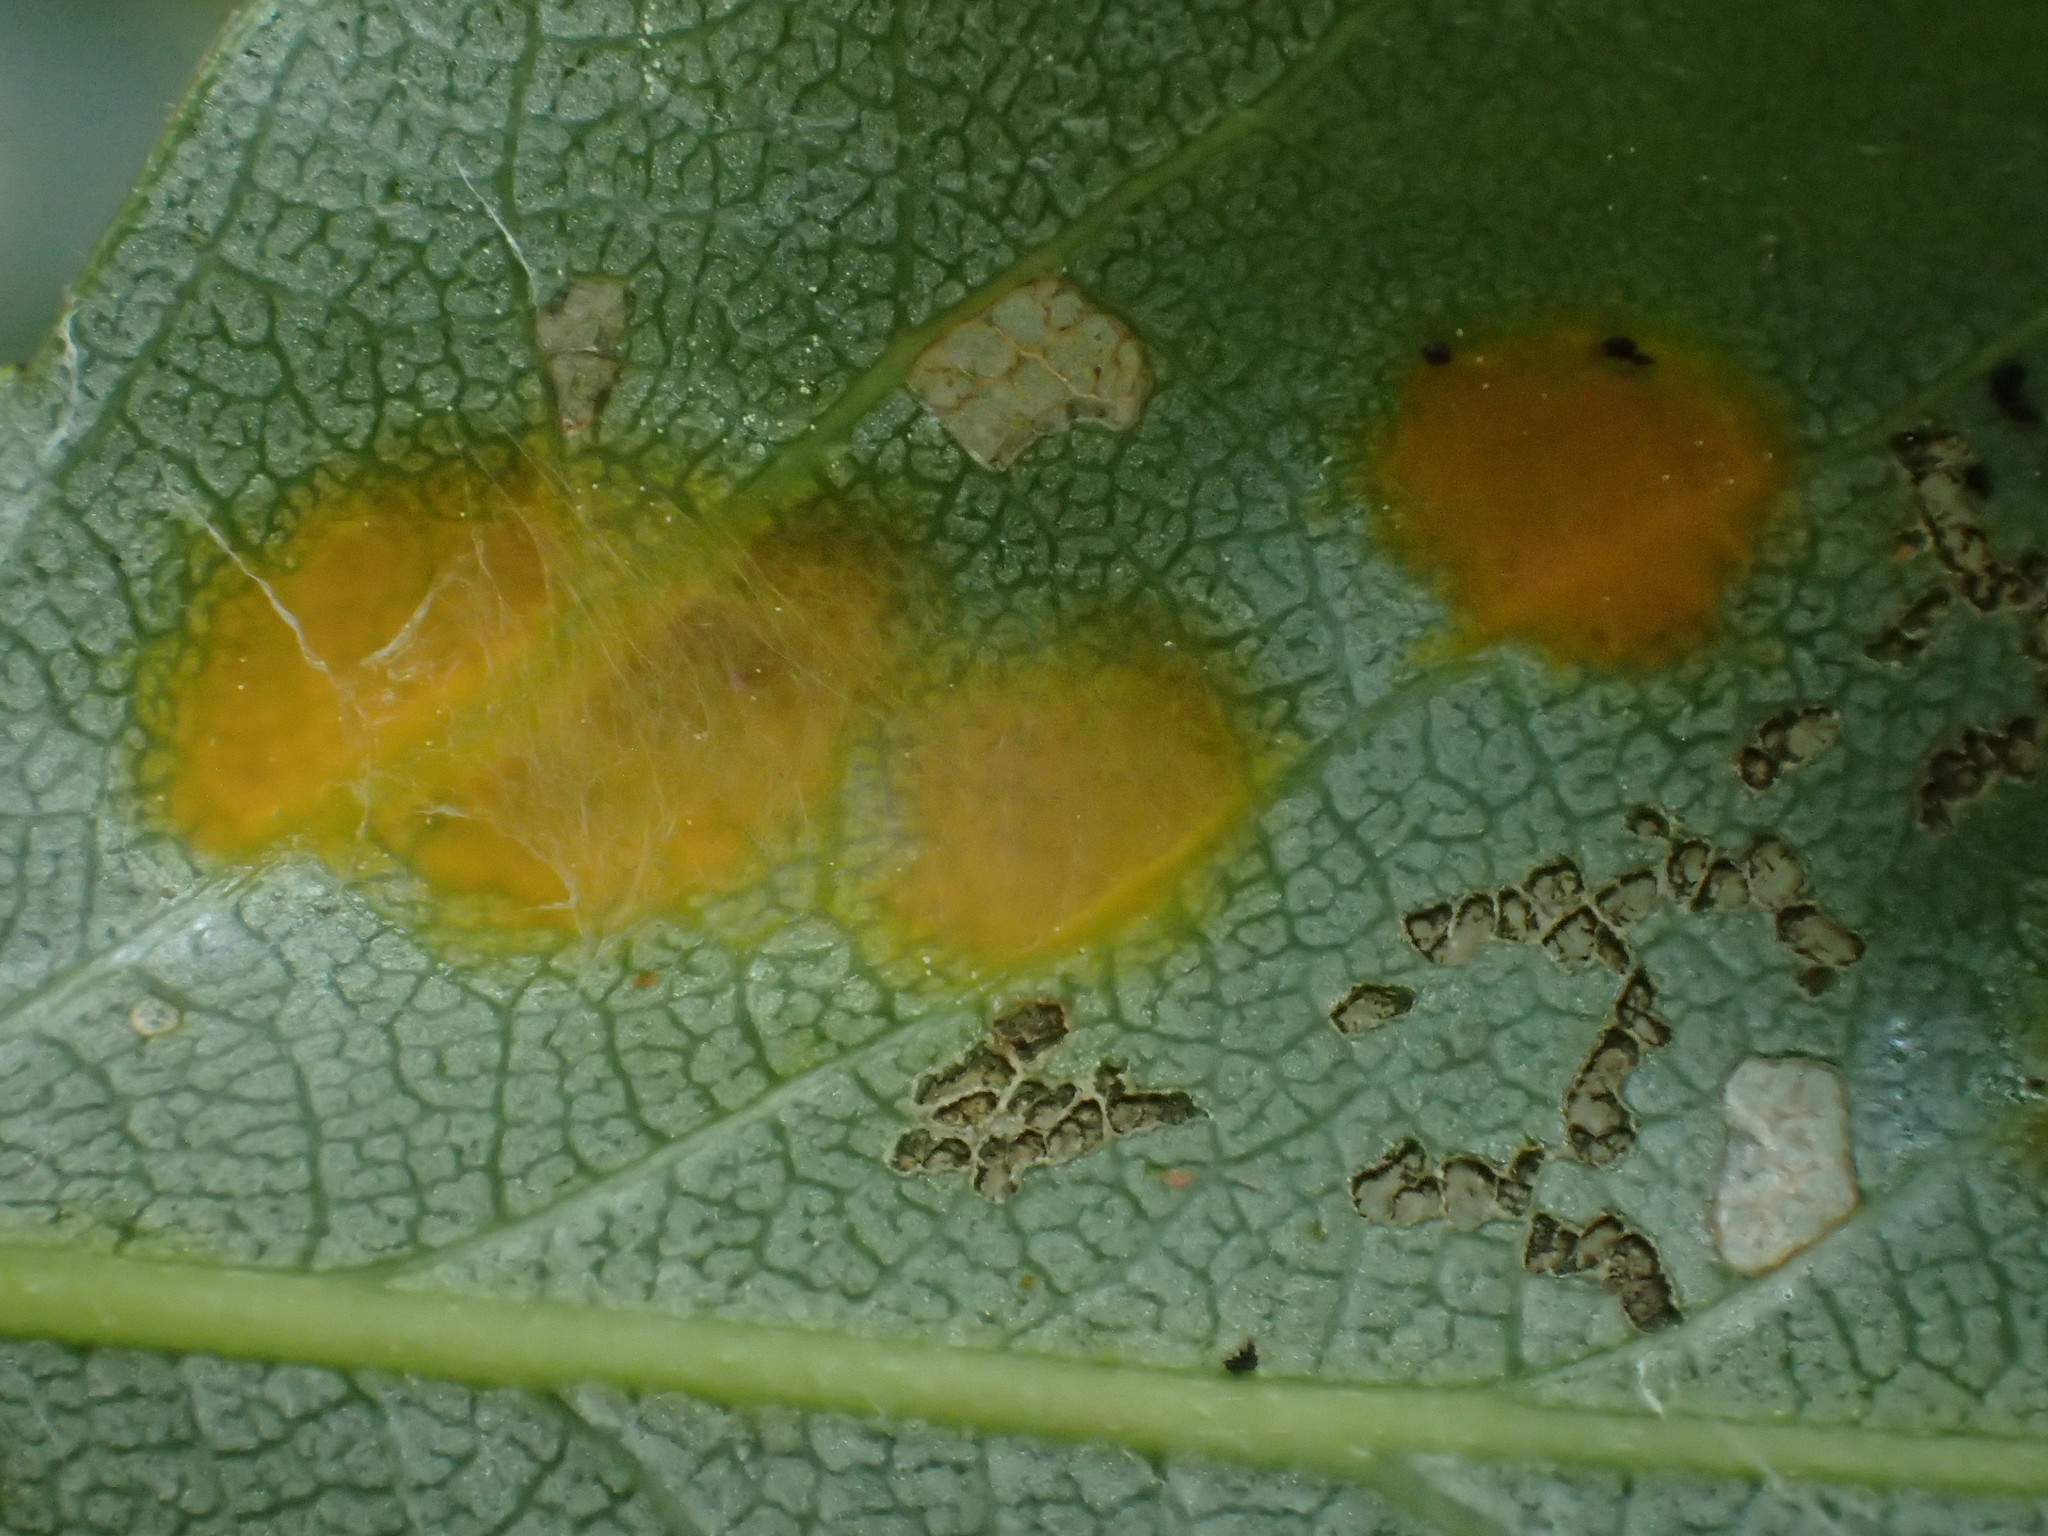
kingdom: Fungi
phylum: Ascomycota
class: Taphrinomycetes
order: Taphrinales
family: Taphrinaceae
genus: Taphrina
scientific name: Taphrina populina
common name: Poplar leaf curl
